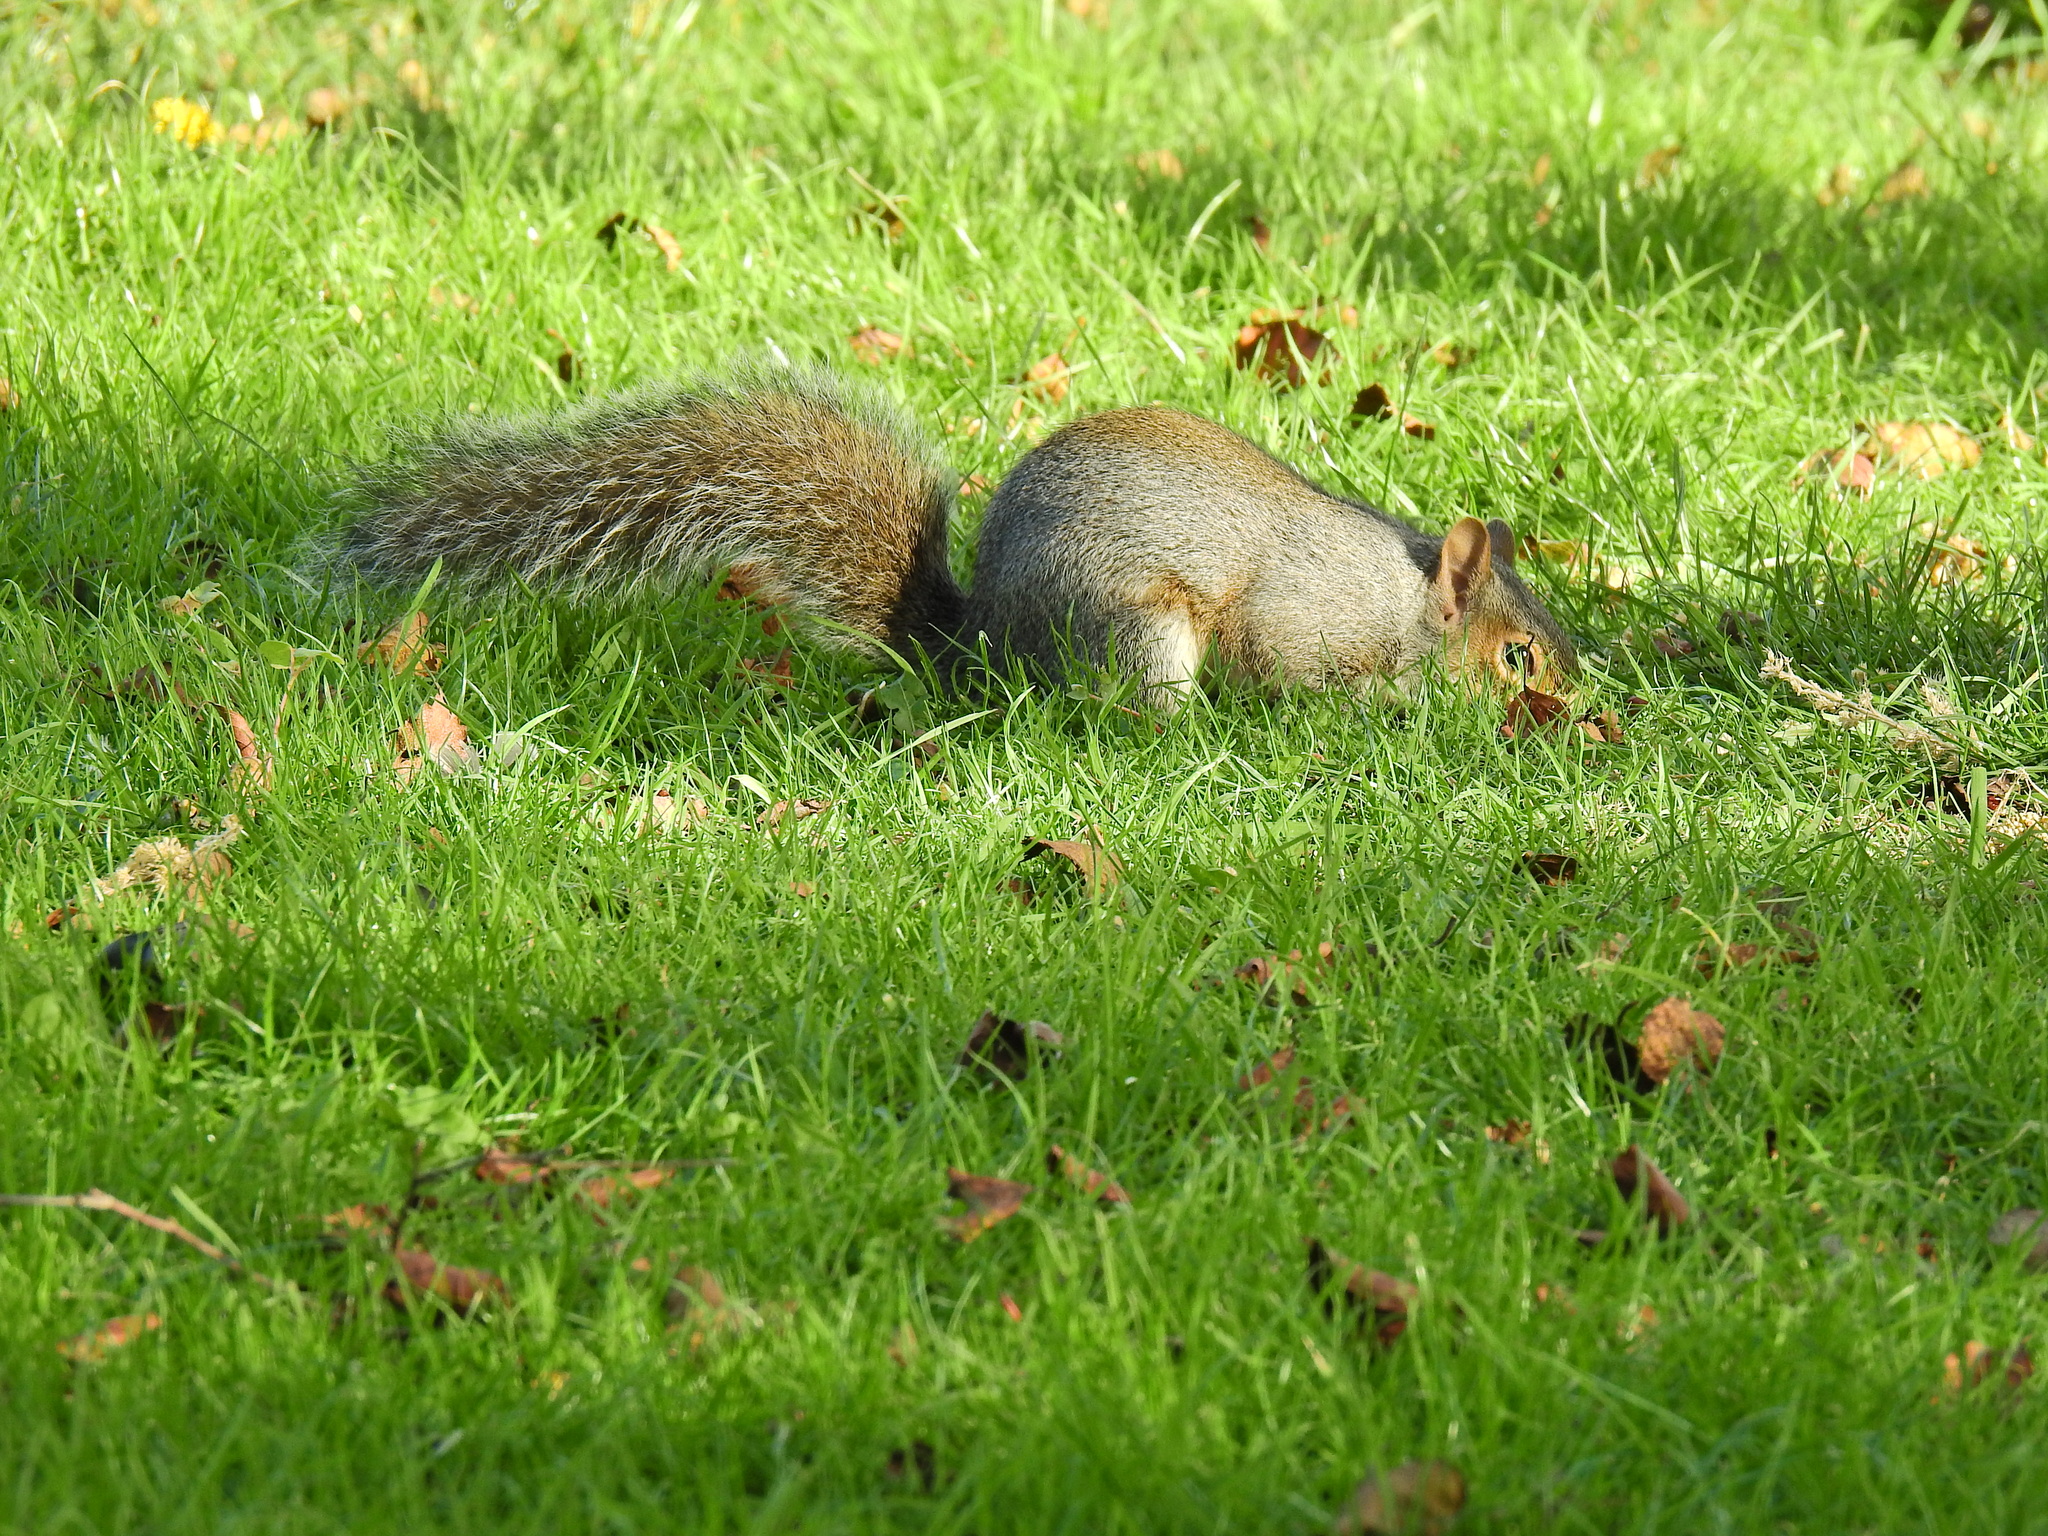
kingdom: Animalia
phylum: Chordata
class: Mammalia
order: Rodentia
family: Sciuridae
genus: Sciurus
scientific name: Sciurus carolinensis
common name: Eastern gray squirrel
